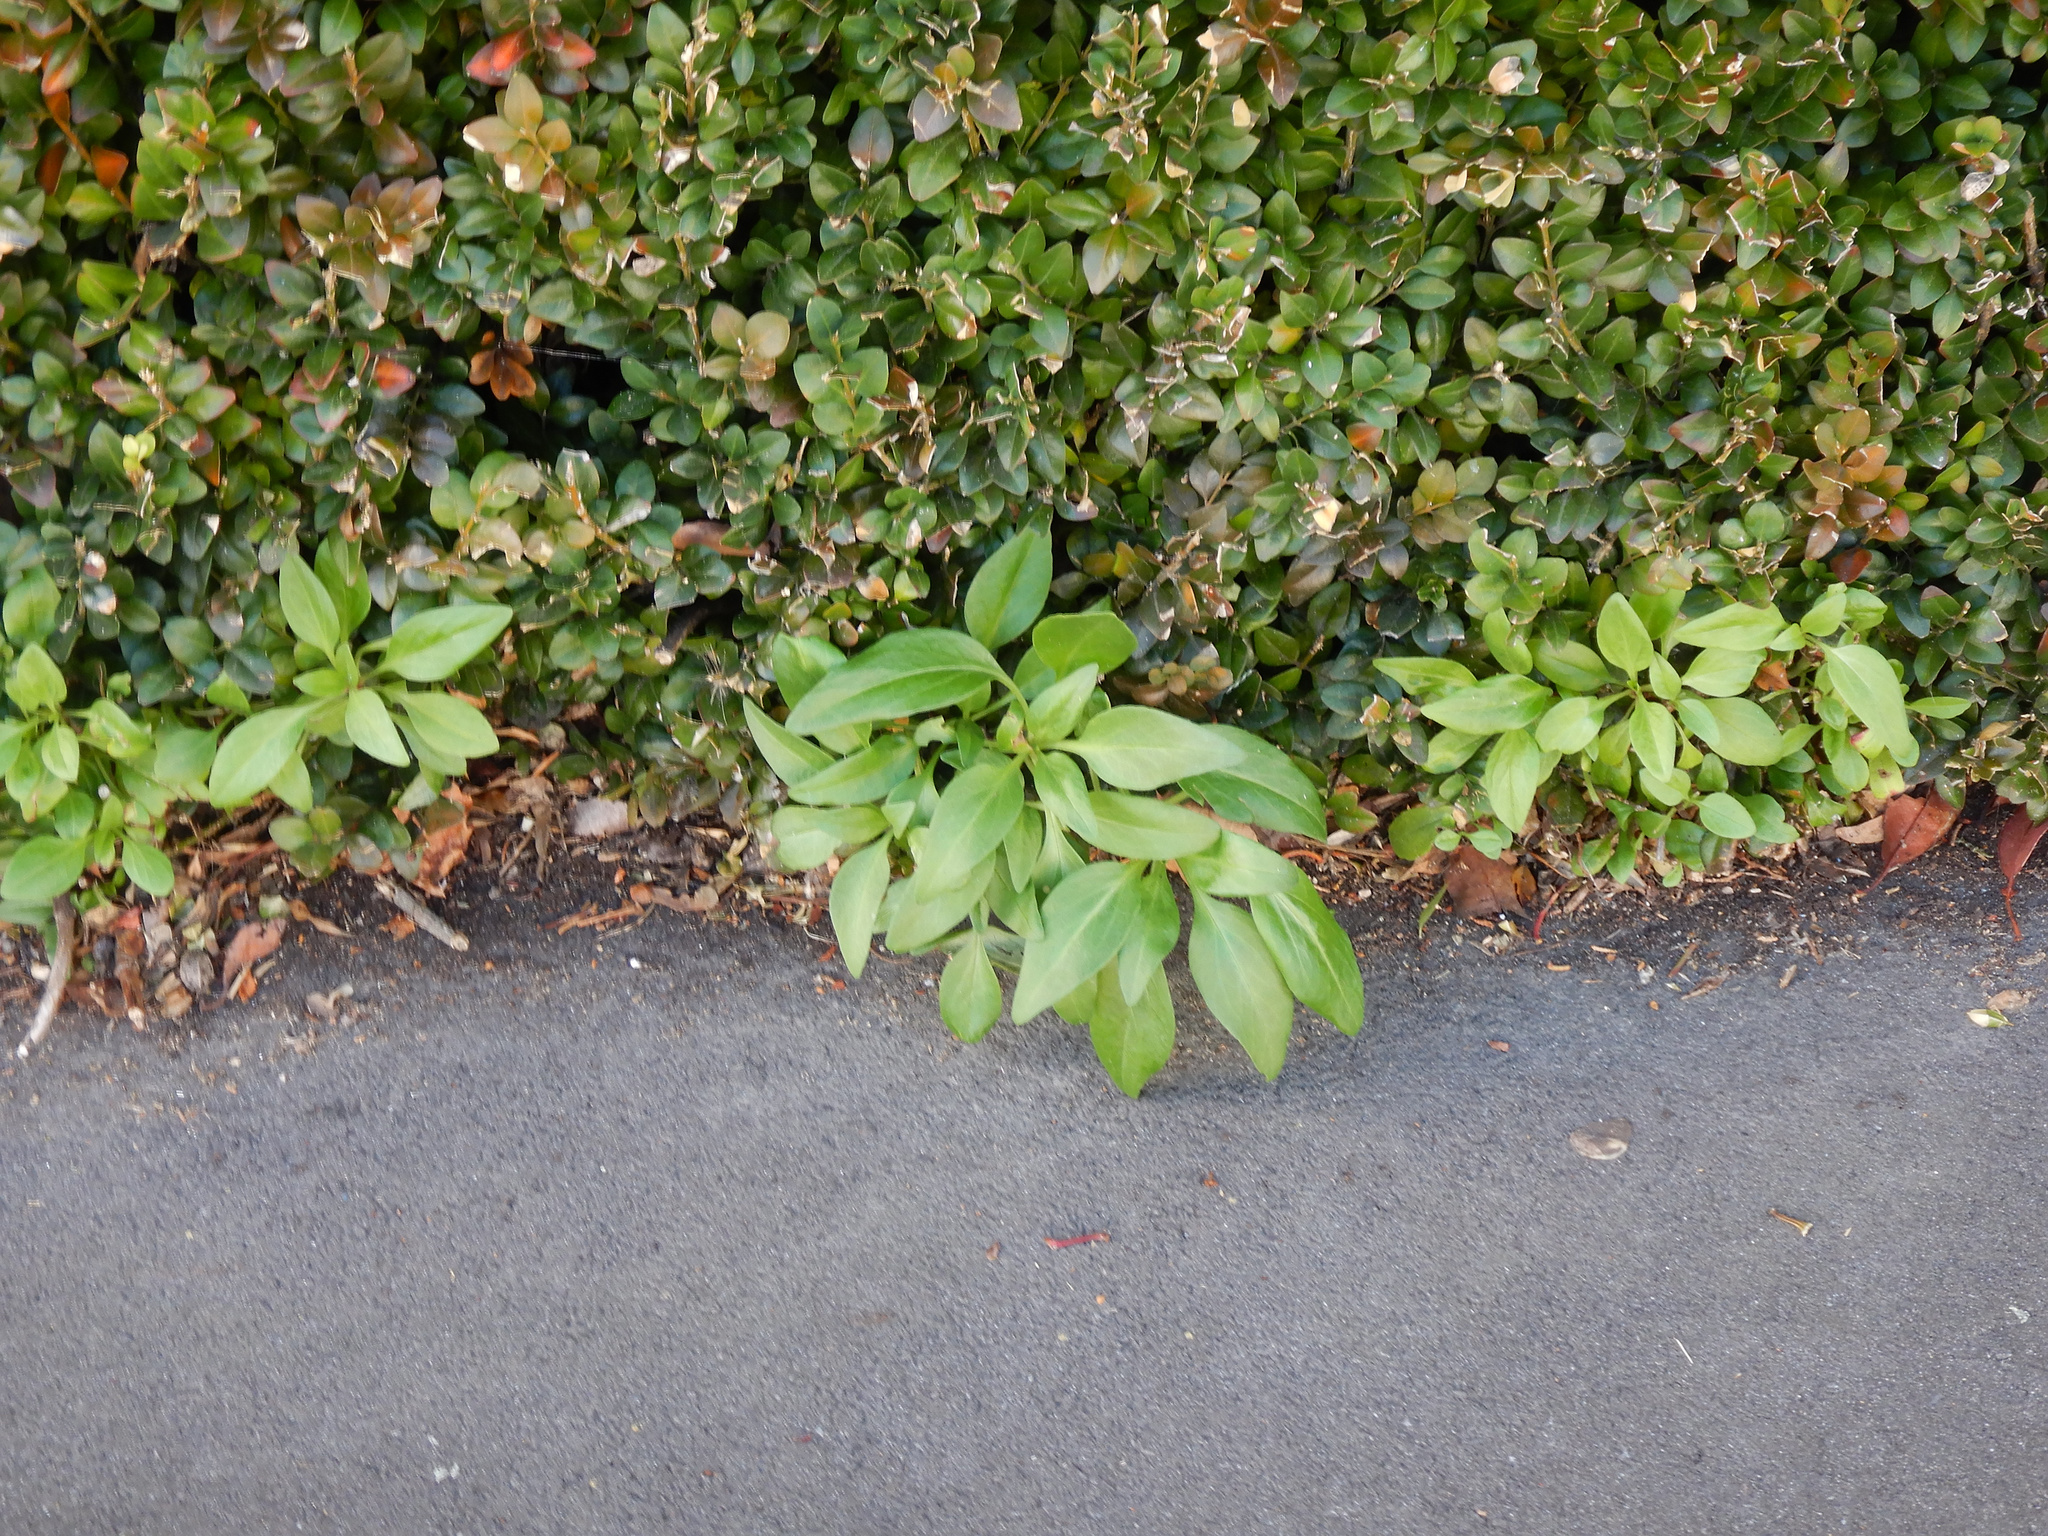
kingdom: Plantae
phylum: Tracheophyta
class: Magnoliopsida
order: Dipsacales
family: Caprifoliaceae
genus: Centranthus
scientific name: Centranthus ruber
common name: Red valerian
